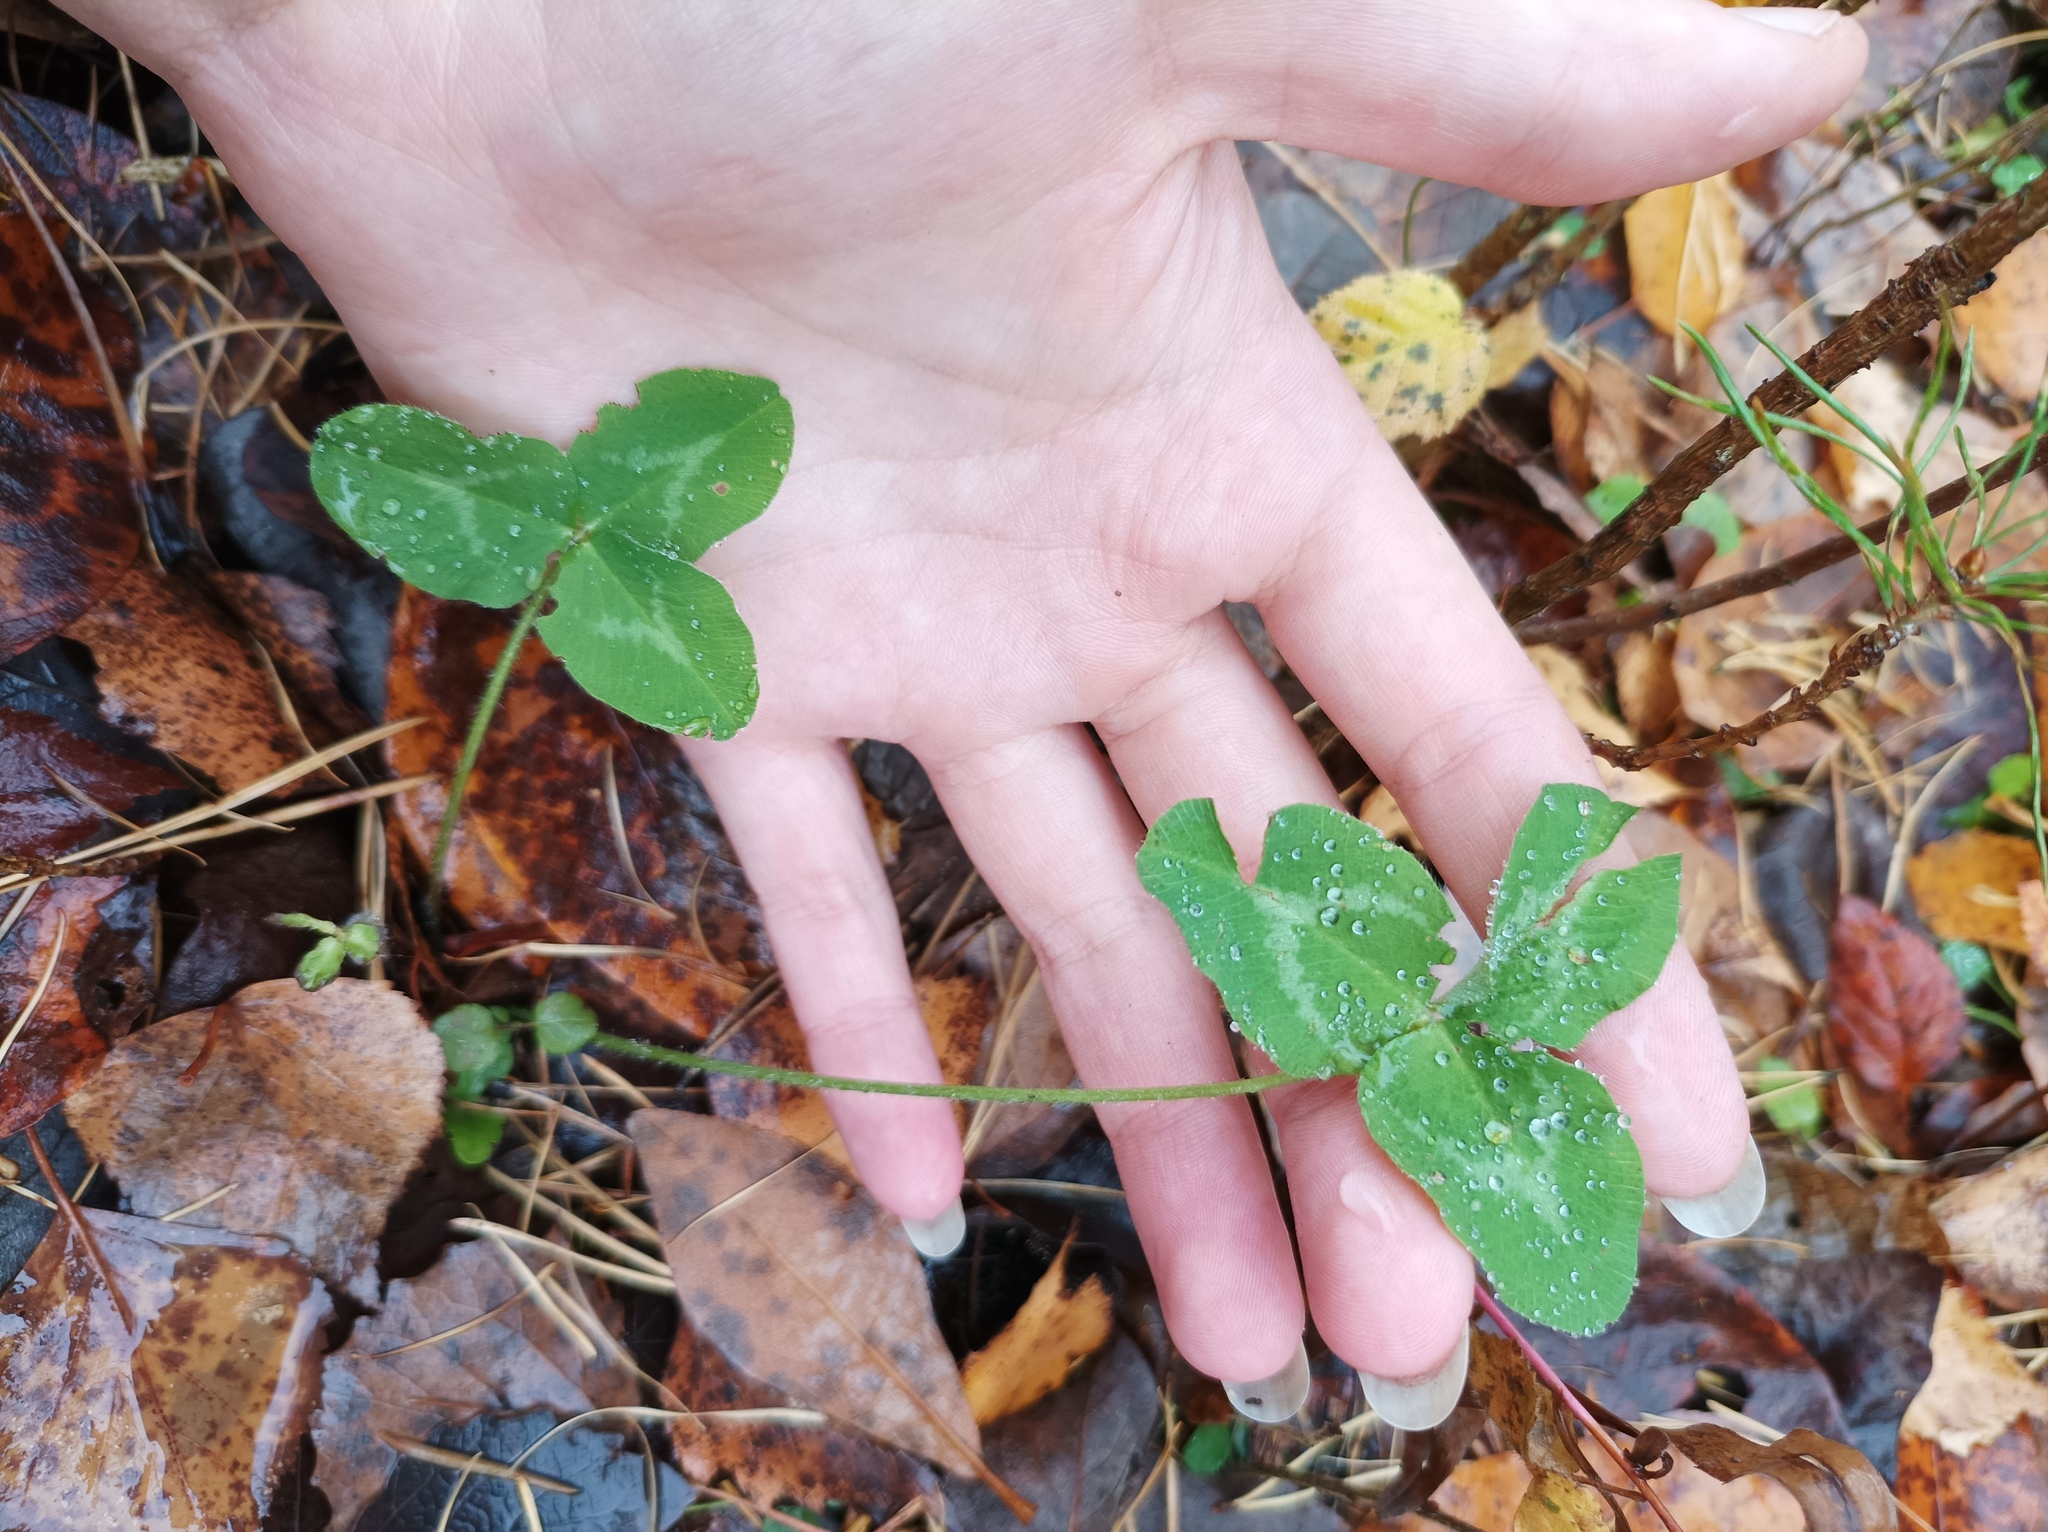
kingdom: Plantae
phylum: Tracheophyta
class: Magnoliopsida
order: Fabales
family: Fabaceae
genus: Trifolium
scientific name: Trifolium pratense
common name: Red clover
